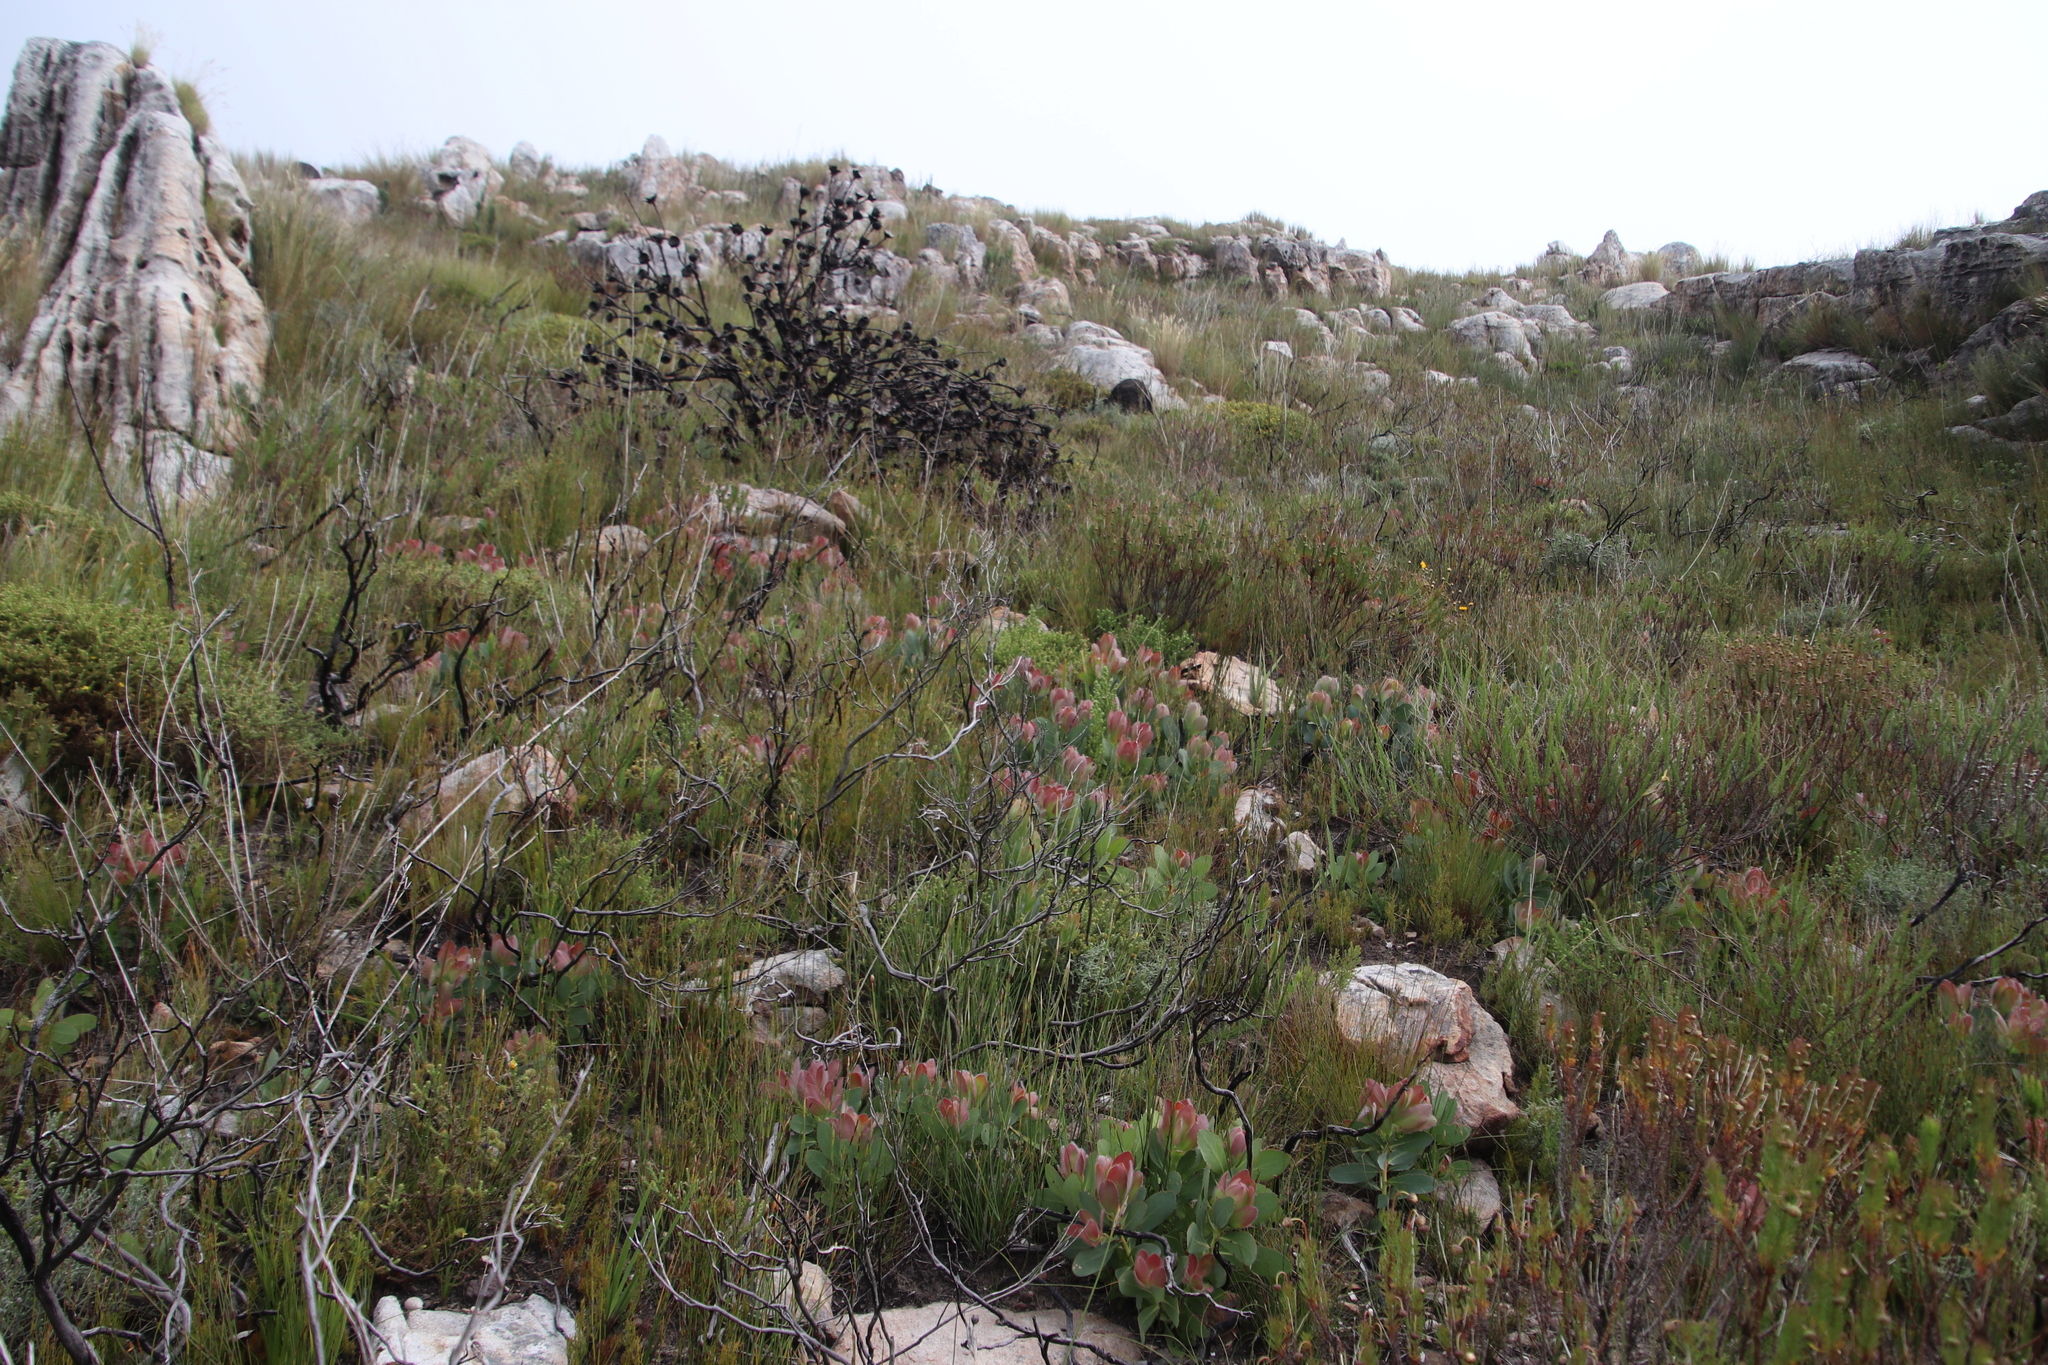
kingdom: Plantae
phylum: Tracheophyta
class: Magnoliopsida
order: Proteales
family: Proteaceae
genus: Protea
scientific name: Protea grandiceps
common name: Red sugarbush
